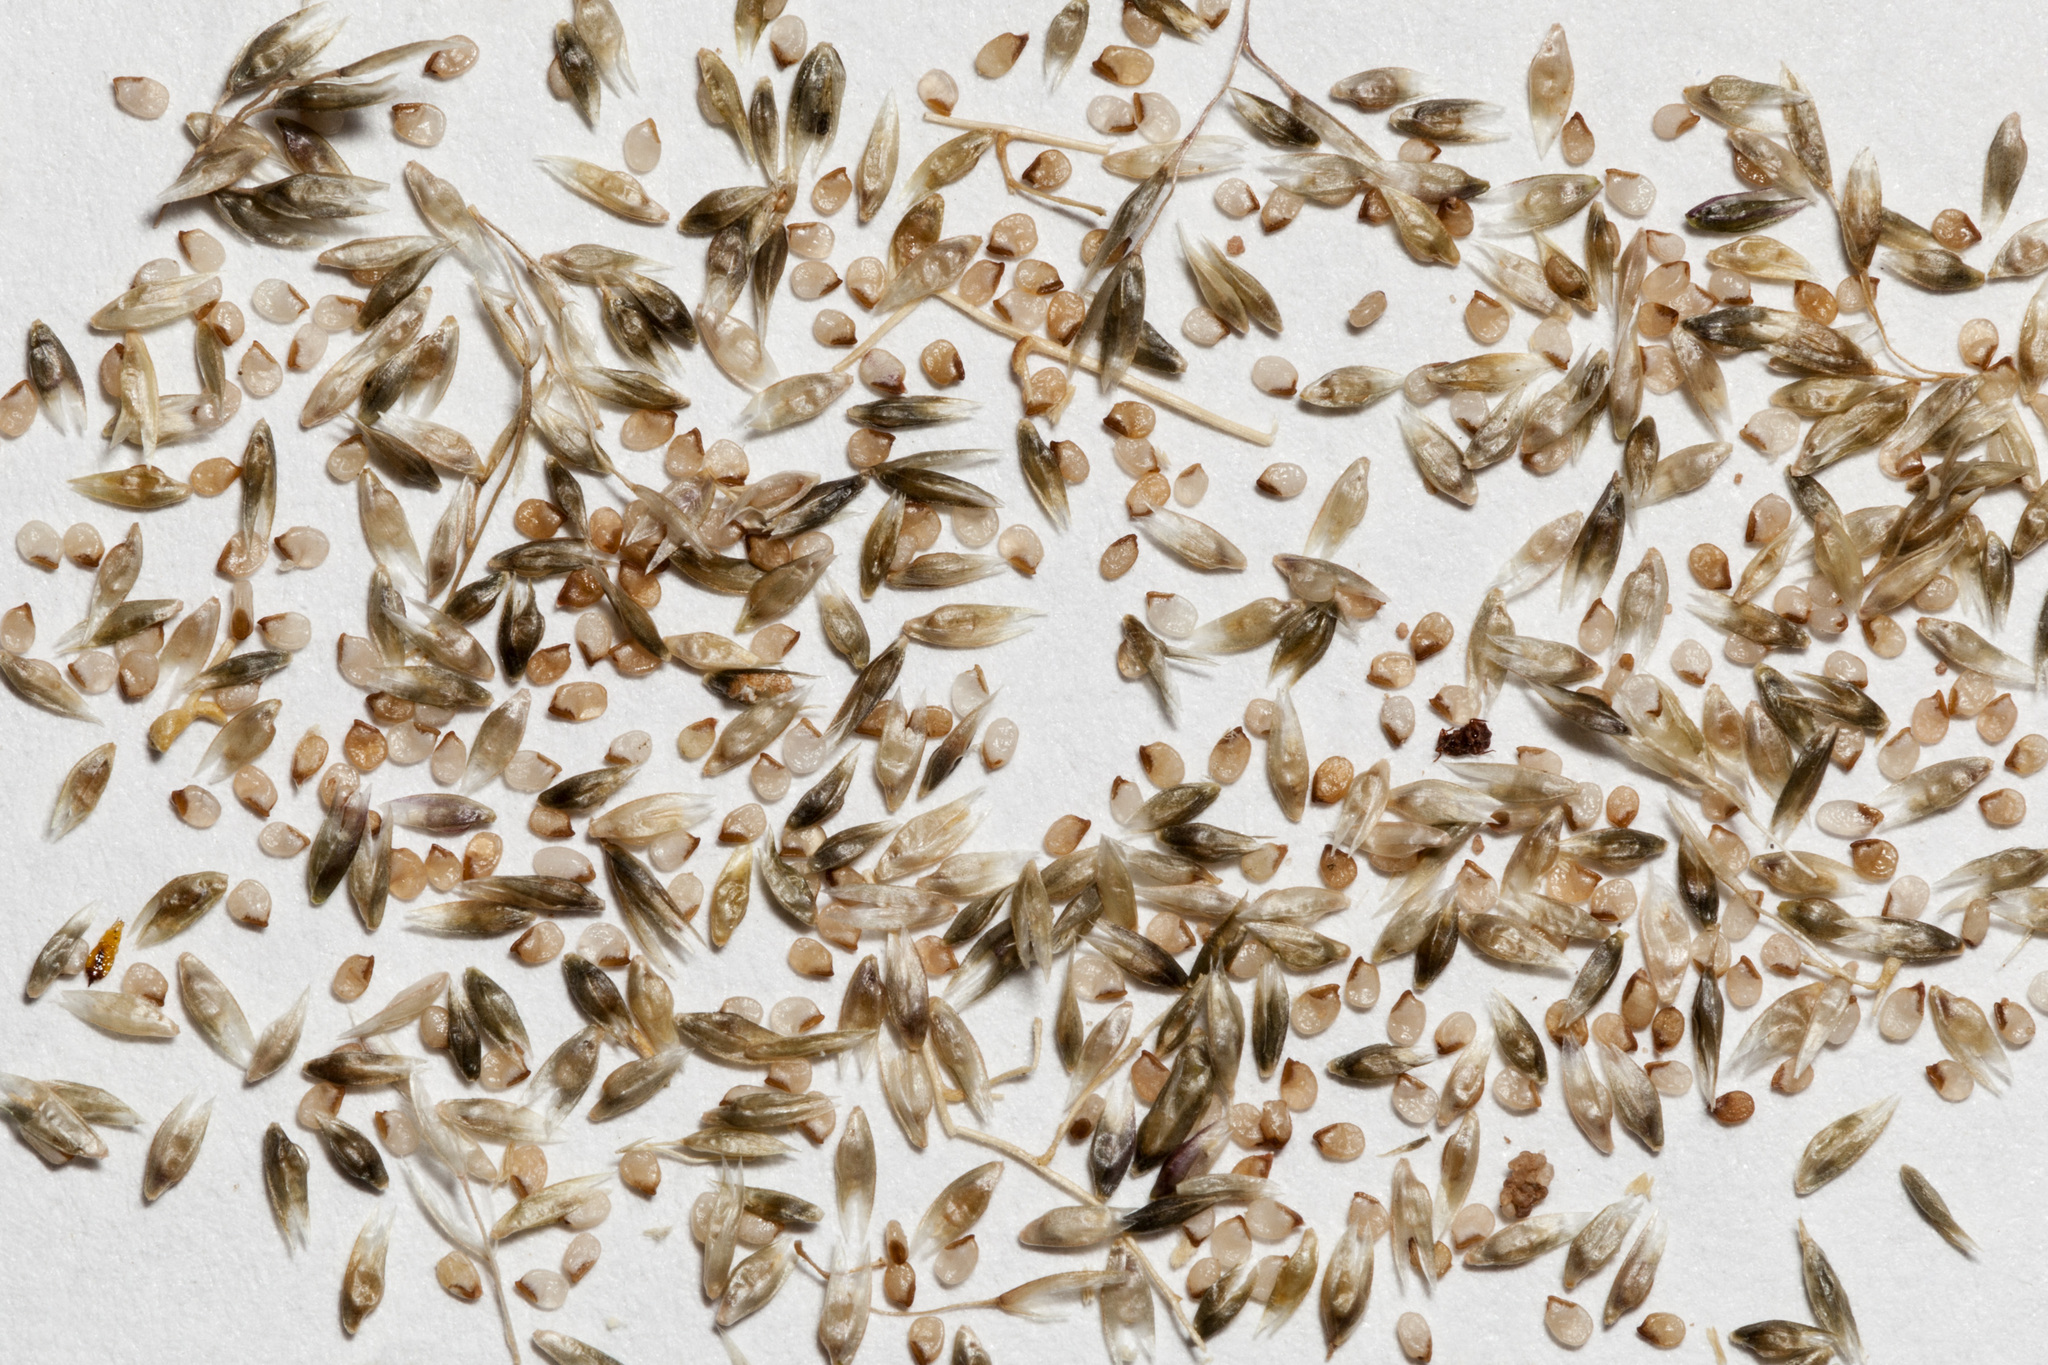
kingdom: Plantae
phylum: Tracheophyta
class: Liliopsida
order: Poales
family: Poaceae
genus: Sporobolus
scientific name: Sporobolus flexuosus
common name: Mesa dropseed
